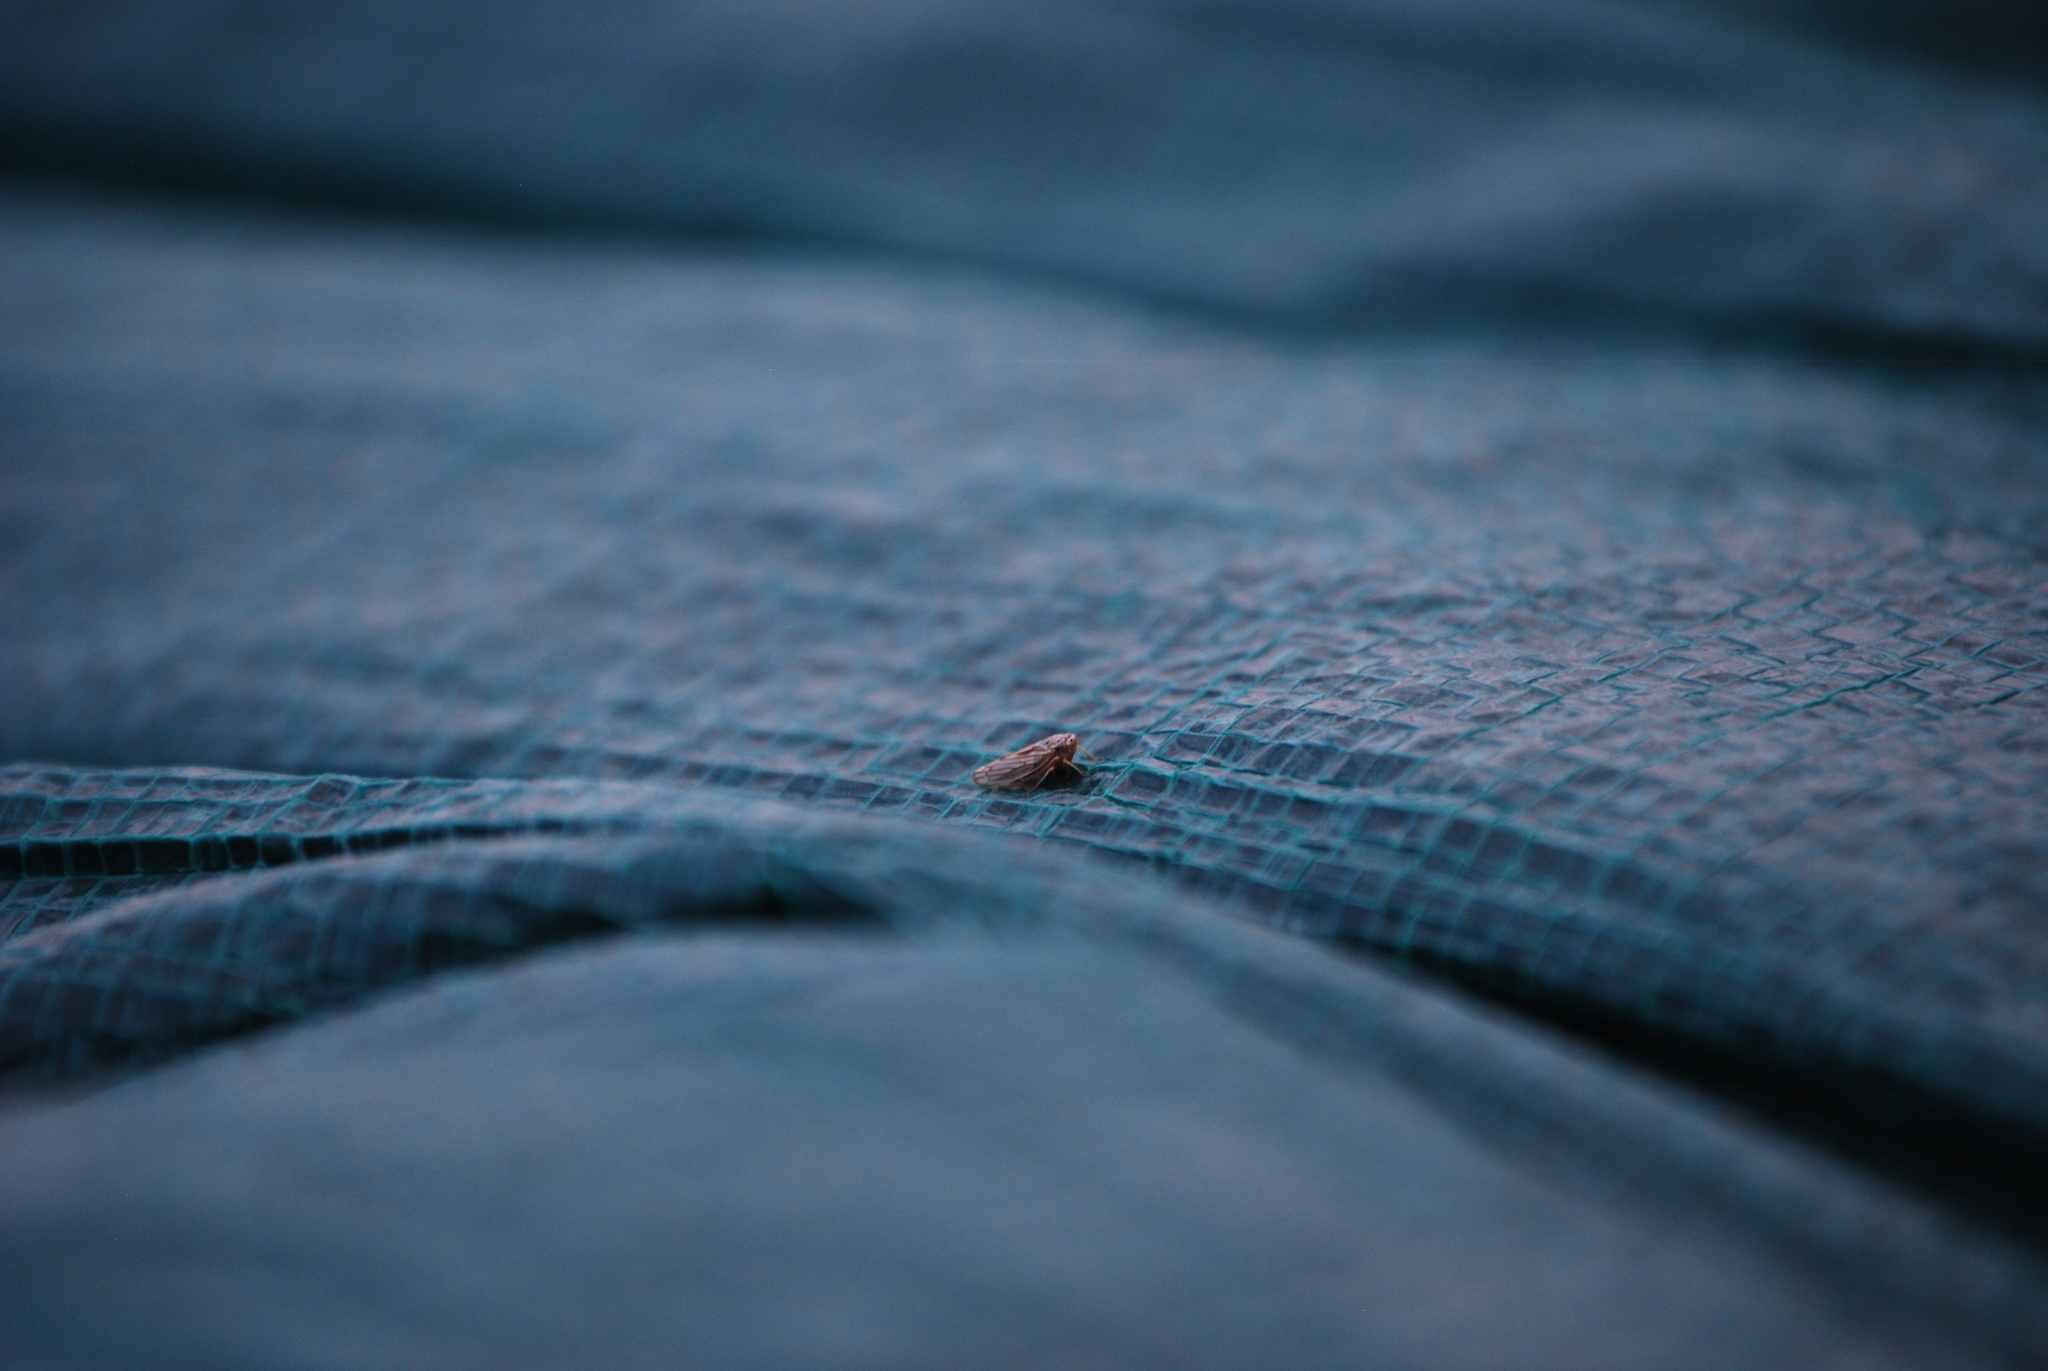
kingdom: Animalia
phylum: Arthropoda
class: Insecta
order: Hemiptera
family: Cicadellidae
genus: Exitianus
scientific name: Exitianus exitiosus
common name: Gray lawn leafhopper
